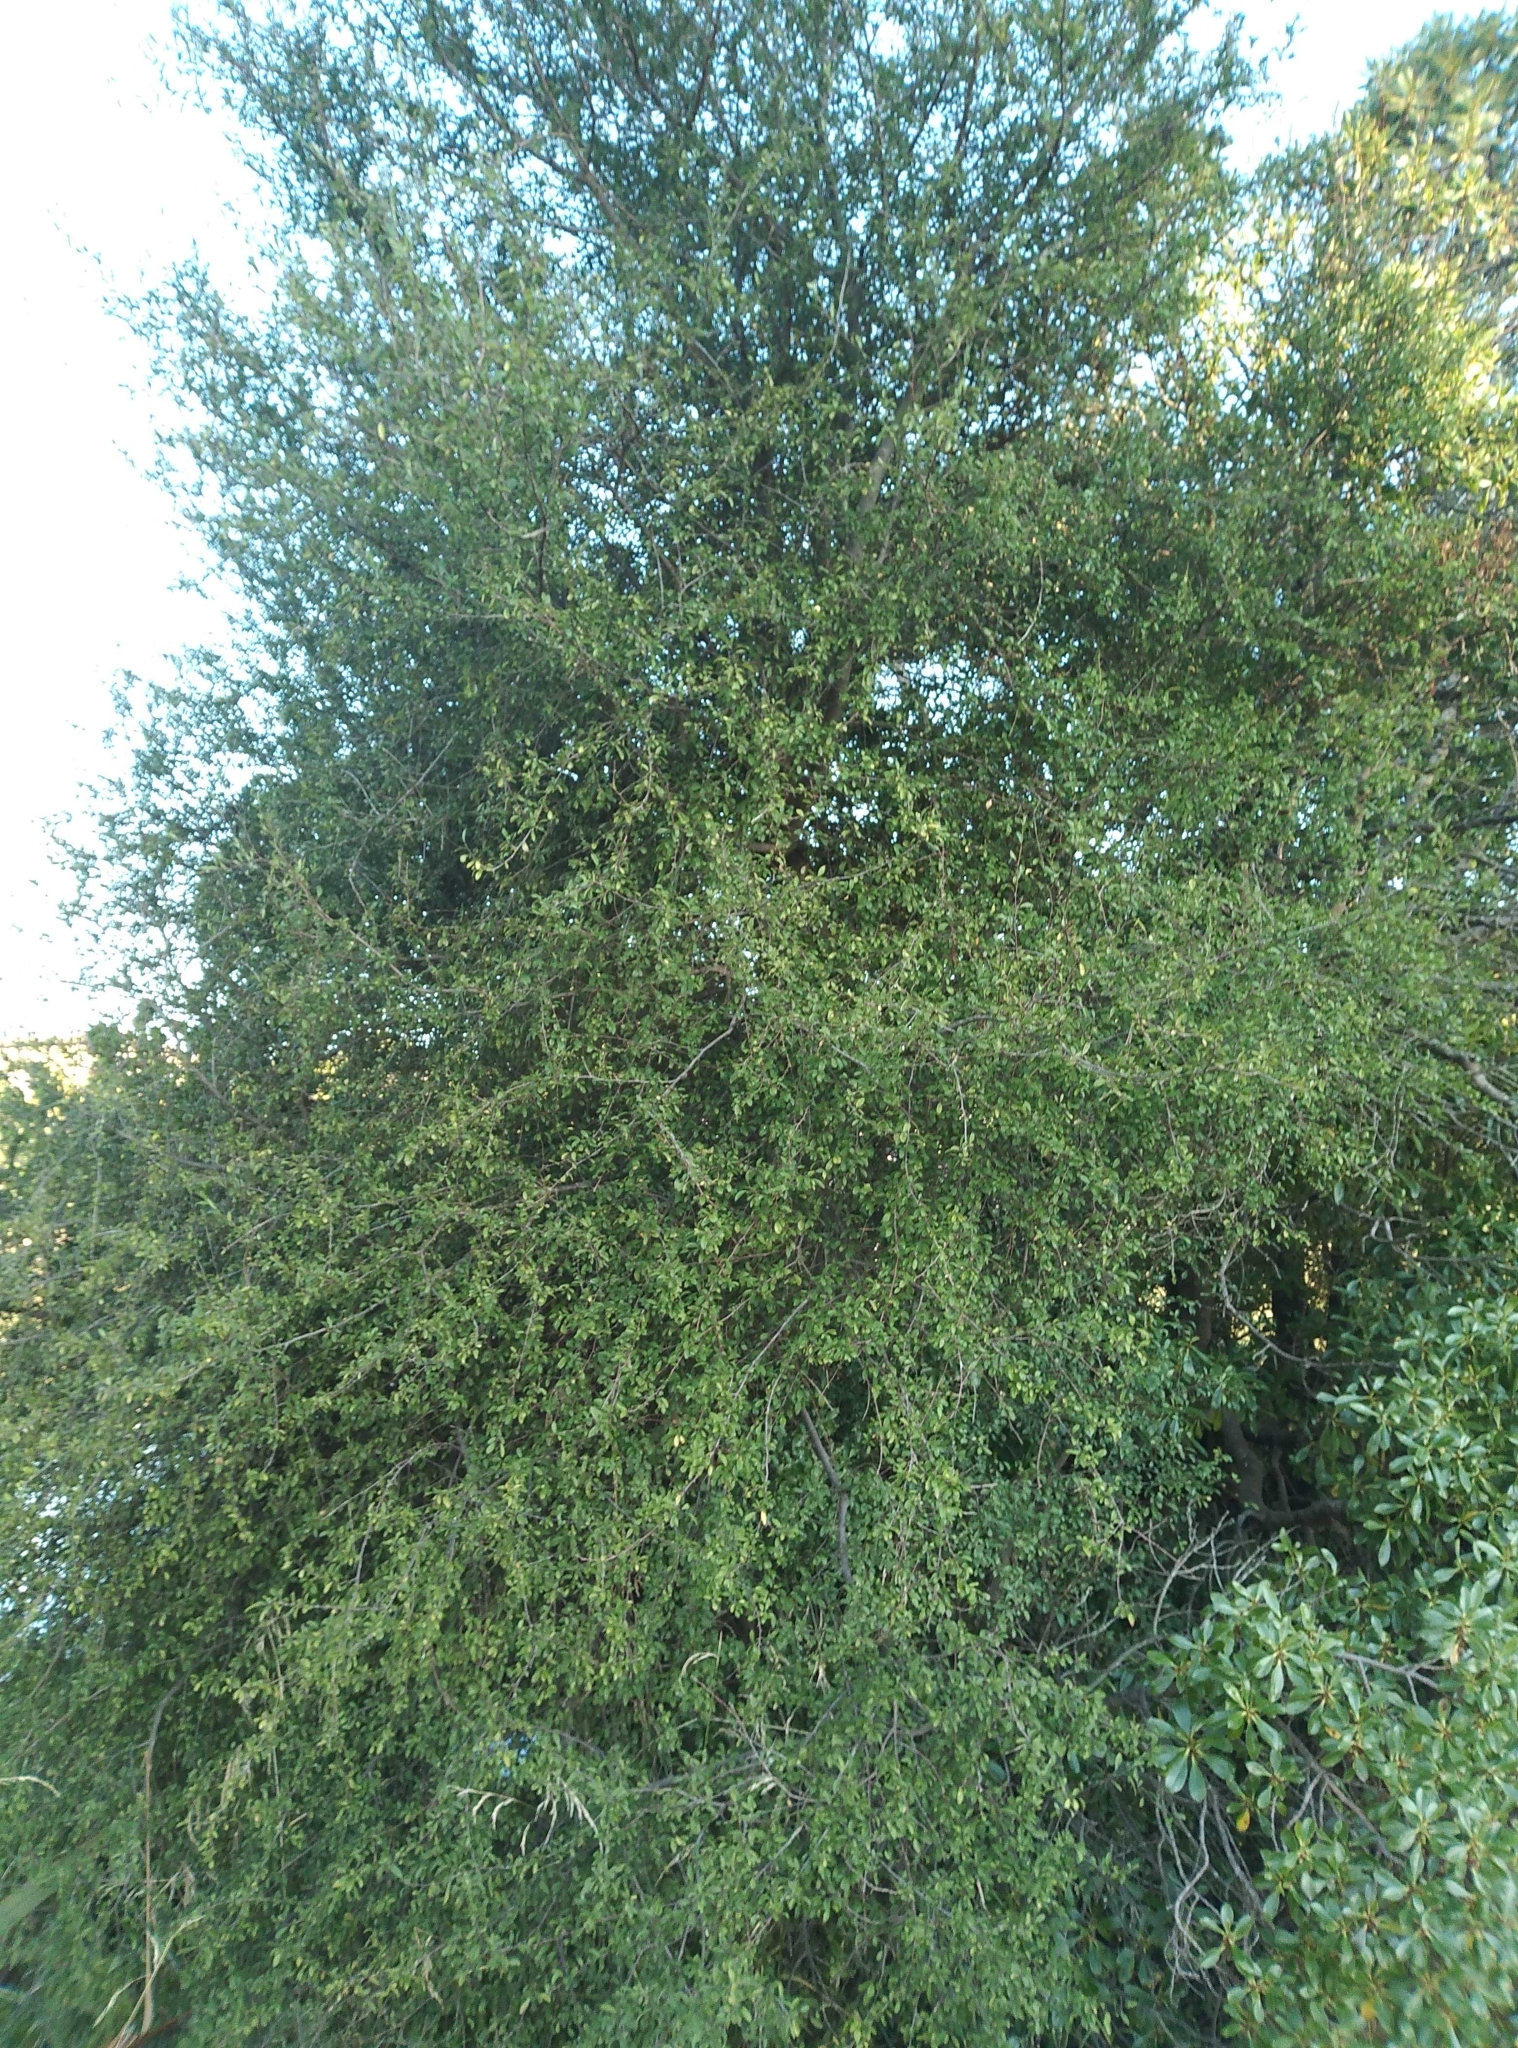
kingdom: Plantae
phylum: Tracheophyta
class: Magnoliopsida
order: Malvales
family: Malvaceae
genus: Plagianthus
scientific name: Plagianthus cymosus
